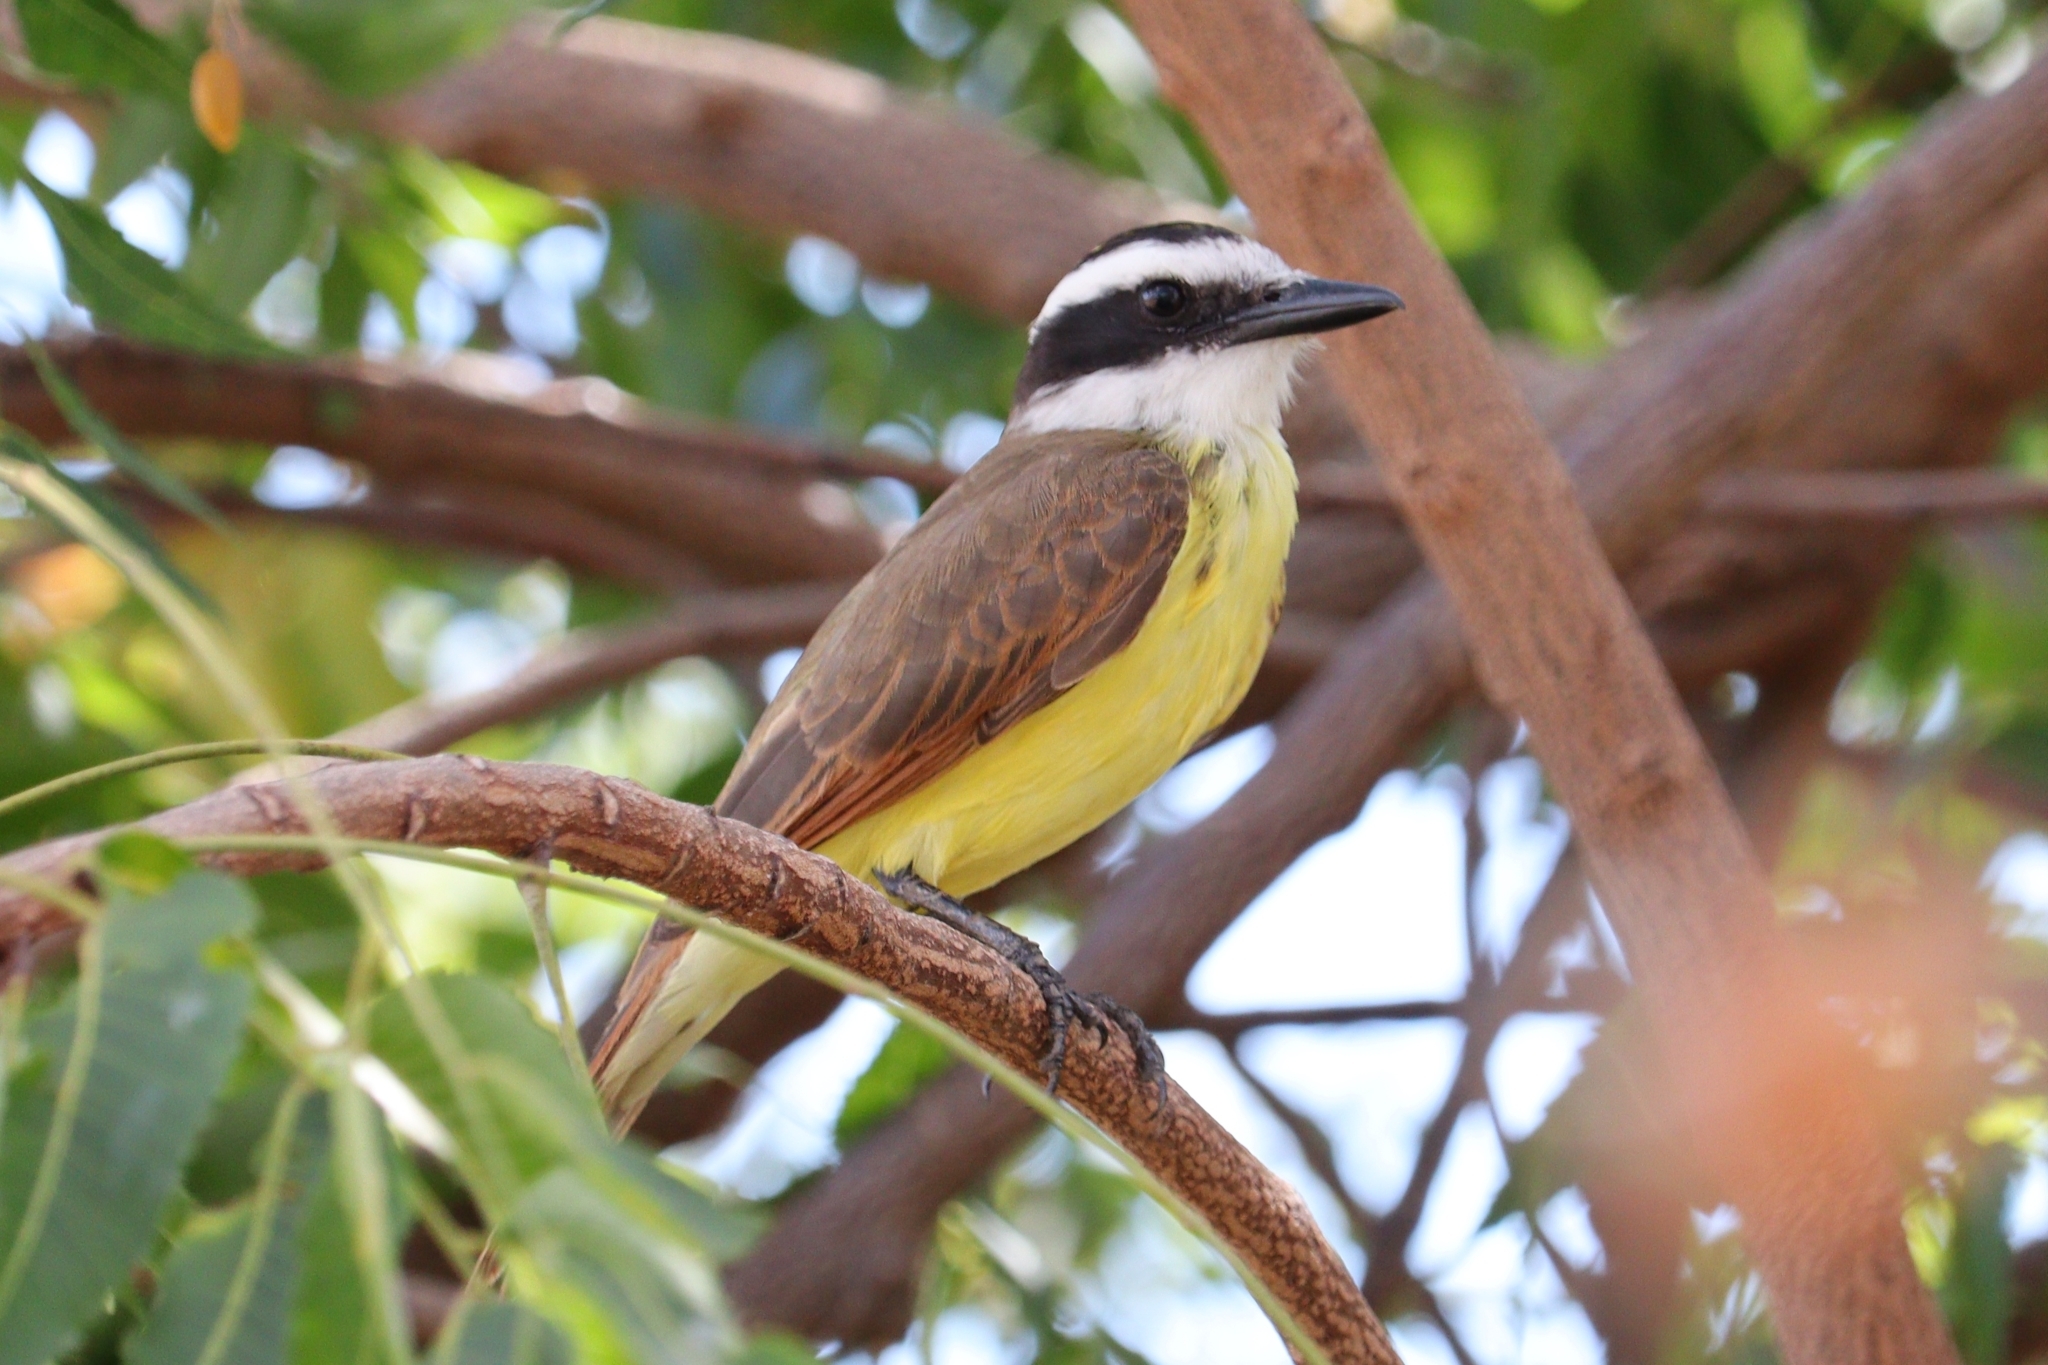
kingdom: Animalia
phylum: Chordata
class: Aves
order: Passeriformes
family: Tyrannidae
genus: Pitangus
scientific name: Pitangus sulphuratus
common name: Great kiskadee
